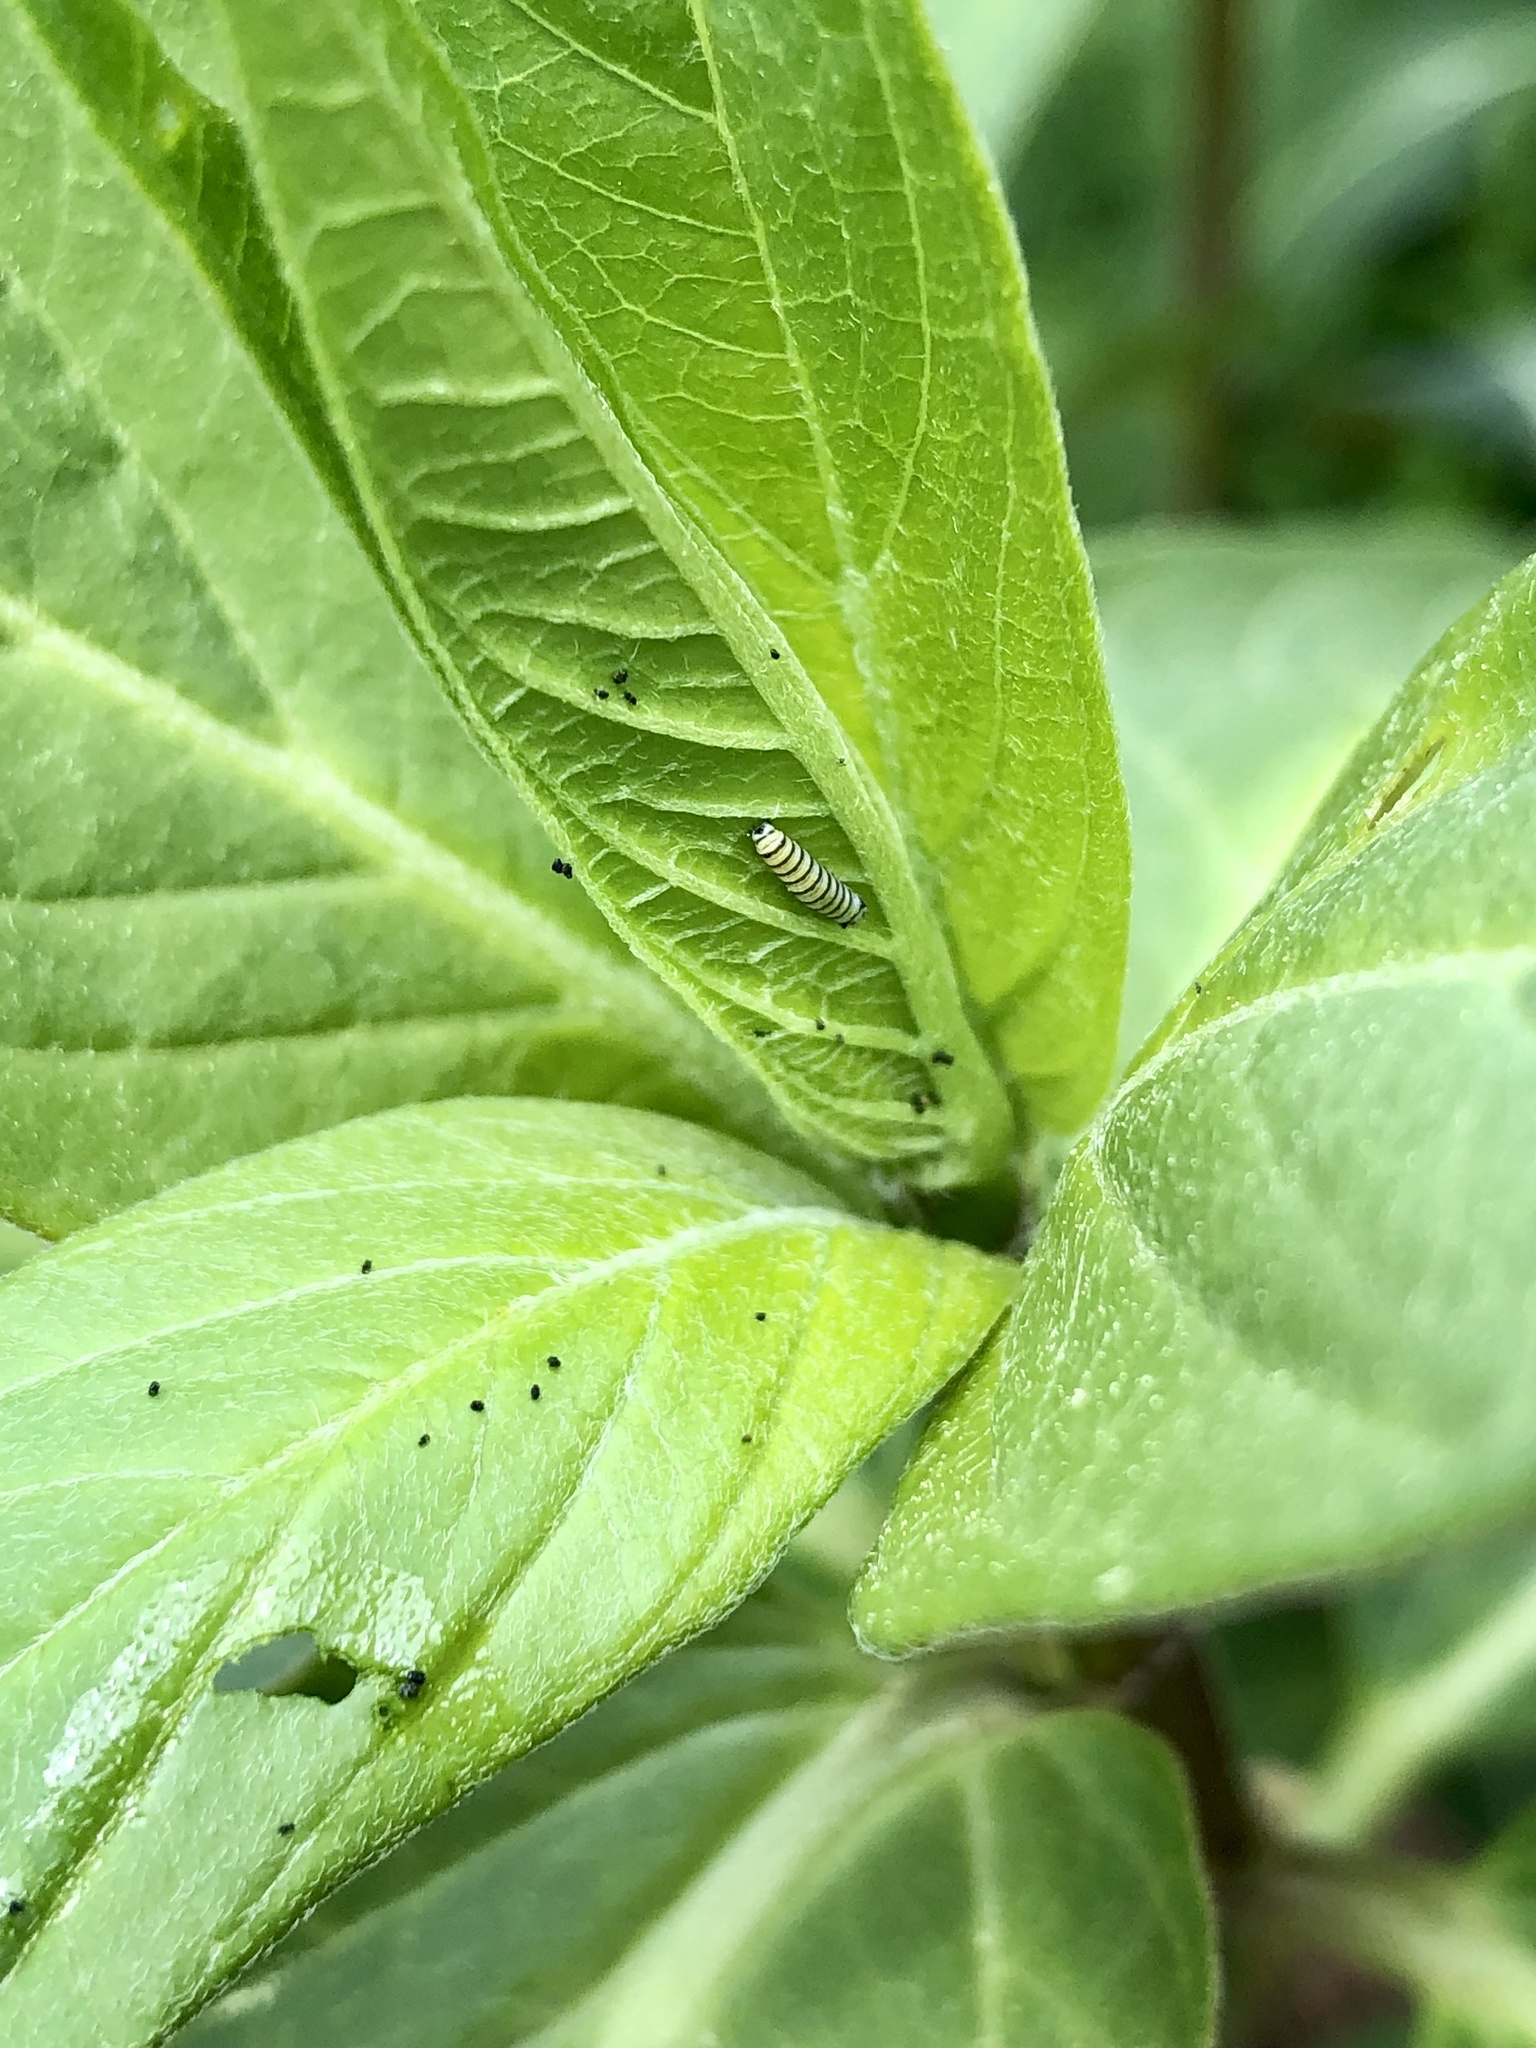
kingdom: Animalia
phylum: Arthropoda
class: Insecta
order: Lepidoptera
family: Nymphalidae
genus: Danaus
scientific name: Danaus plexippus
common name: Monarch
